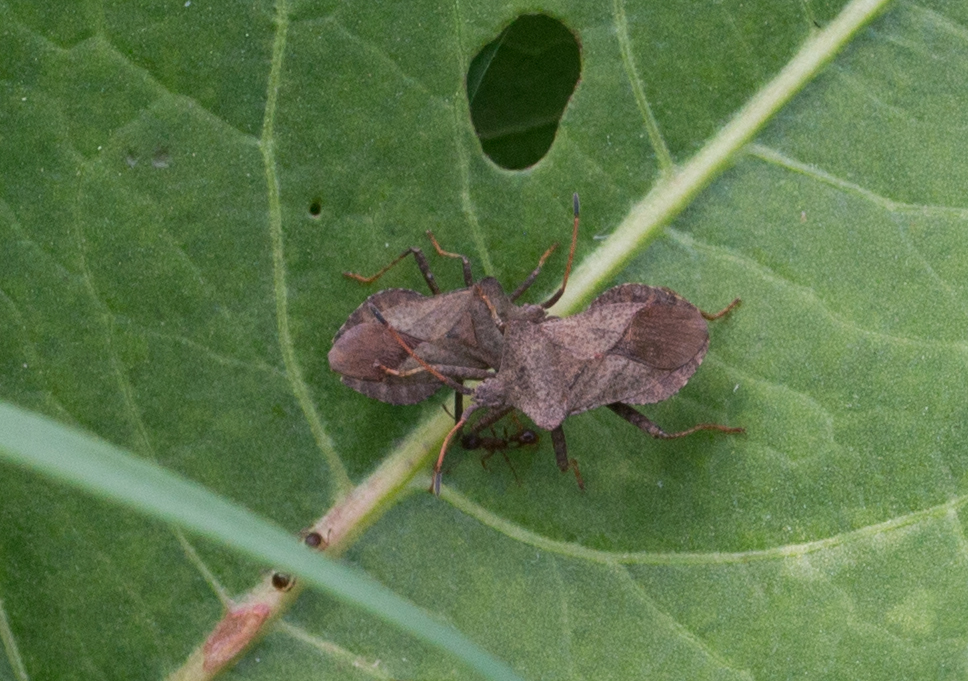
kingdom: Animalia
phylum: Arthropoda
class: Insecta
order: Hemiptera
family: Coreidae
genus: Coreus
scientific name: Coreus marginatus
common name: Dock bug
